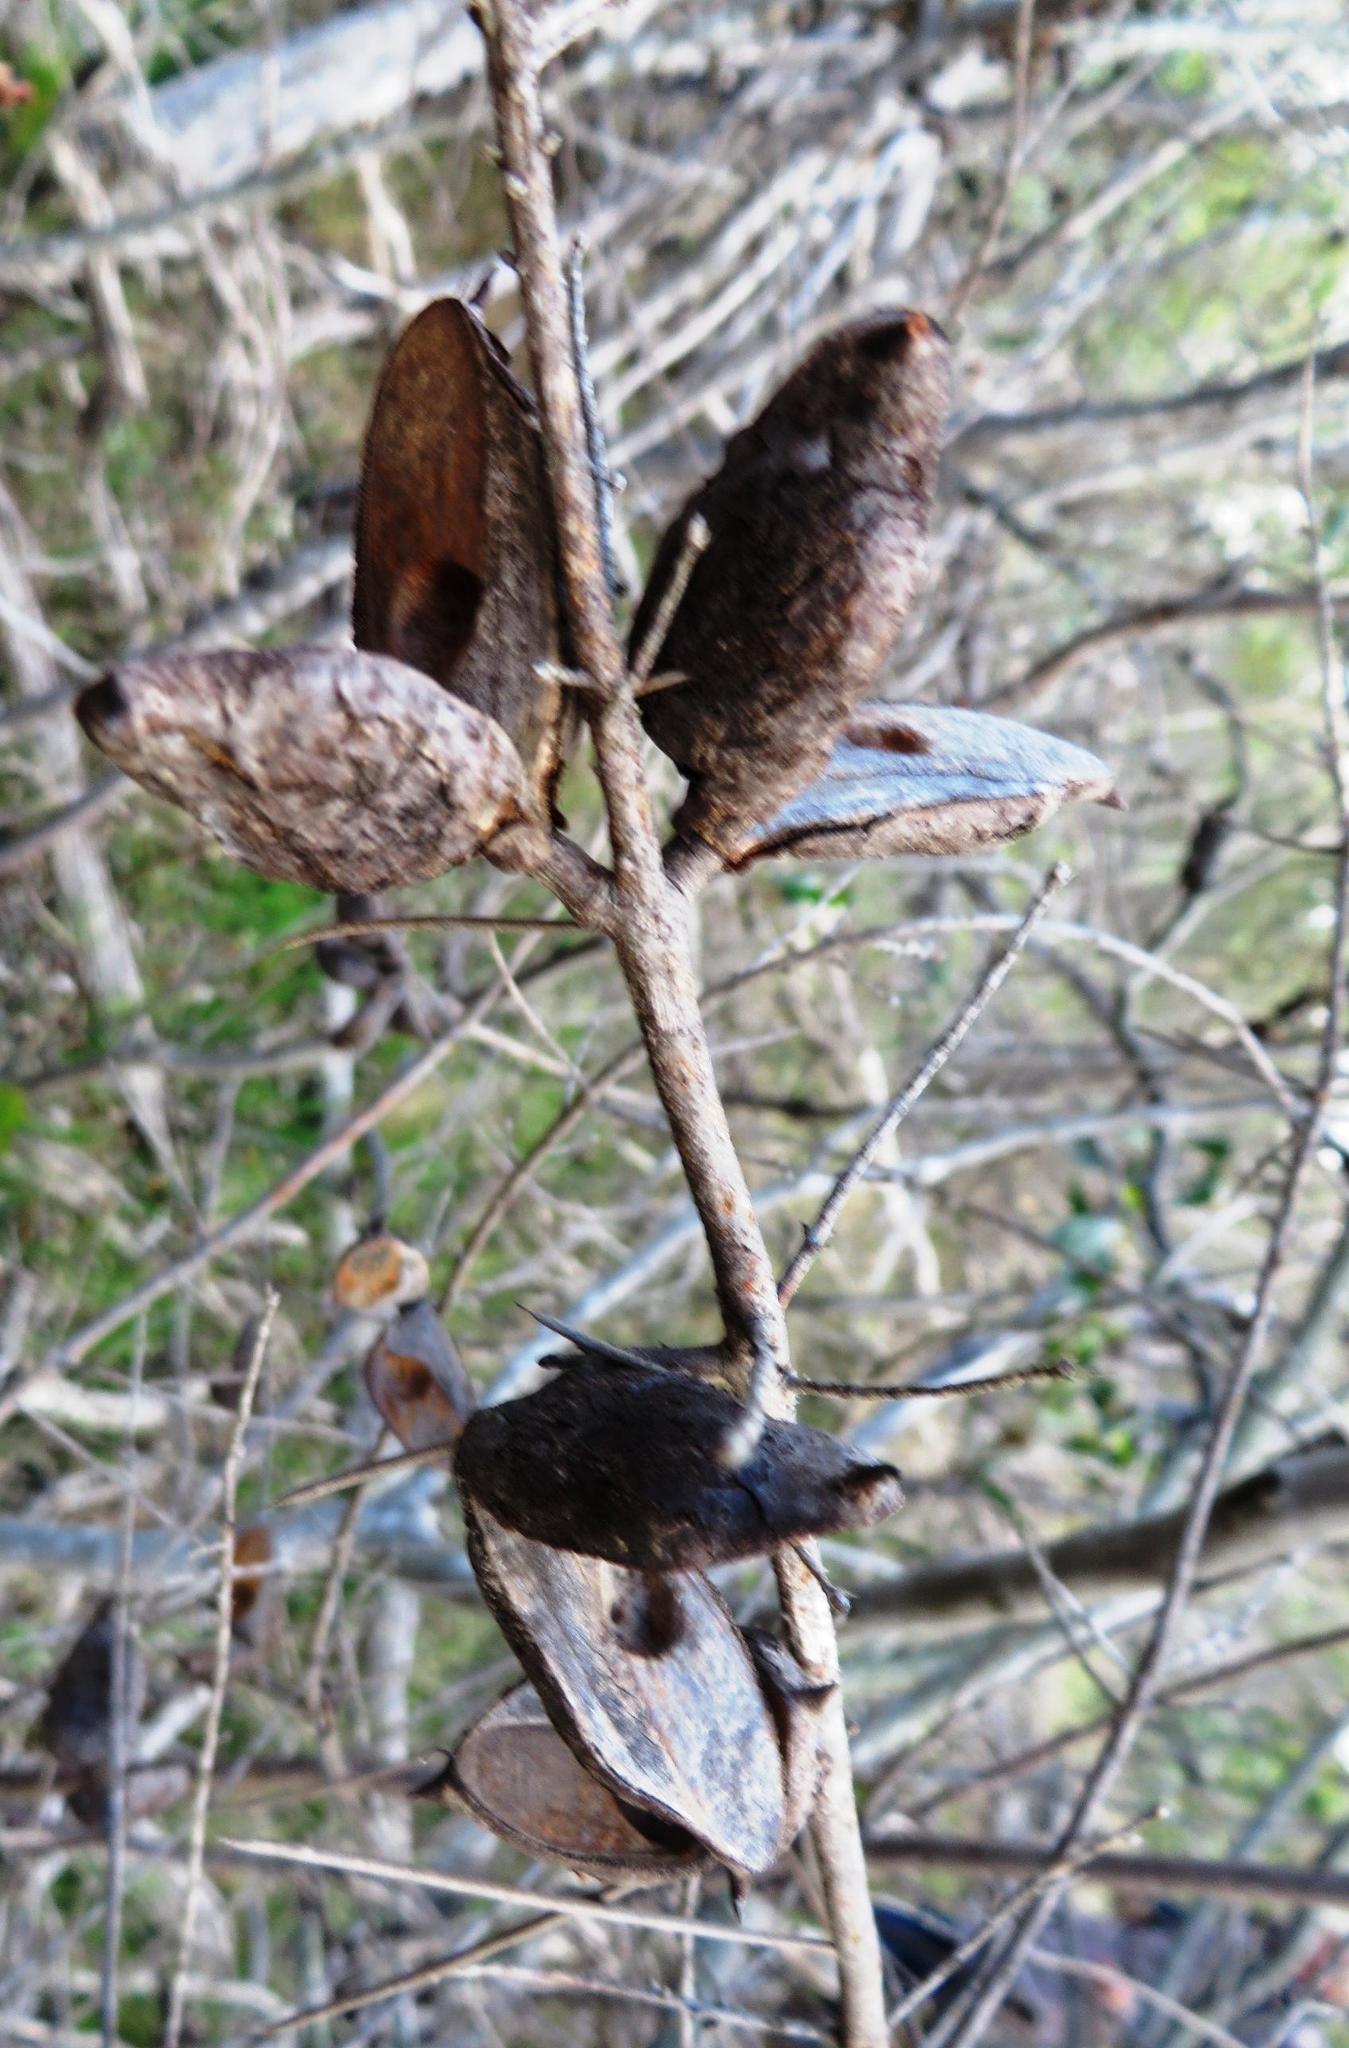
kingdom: Plantae
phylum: Tracheophyta
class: Magnoliopsida
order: Proteales
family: Proteaceae
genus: Hakea
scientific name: Hakea sericea
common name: Needle bush
